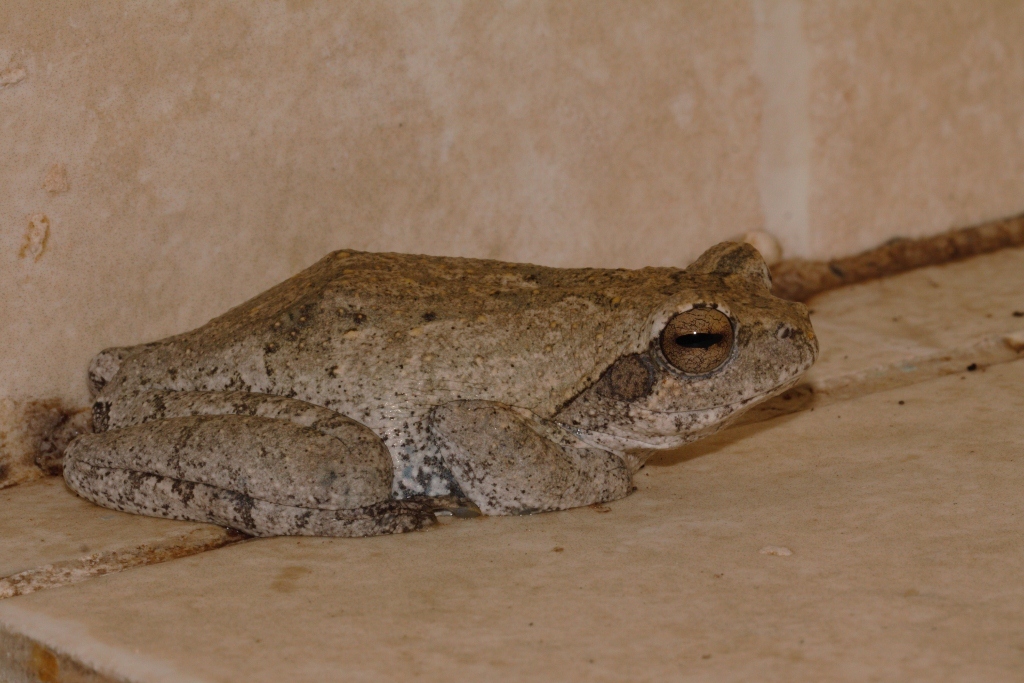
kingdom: Animalia
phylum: Chordata
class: Amphibia
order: Anura
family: Rhacophoridae
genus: Chiromantis
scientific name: Chiromantis xerampelina
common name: African gray treefrog
